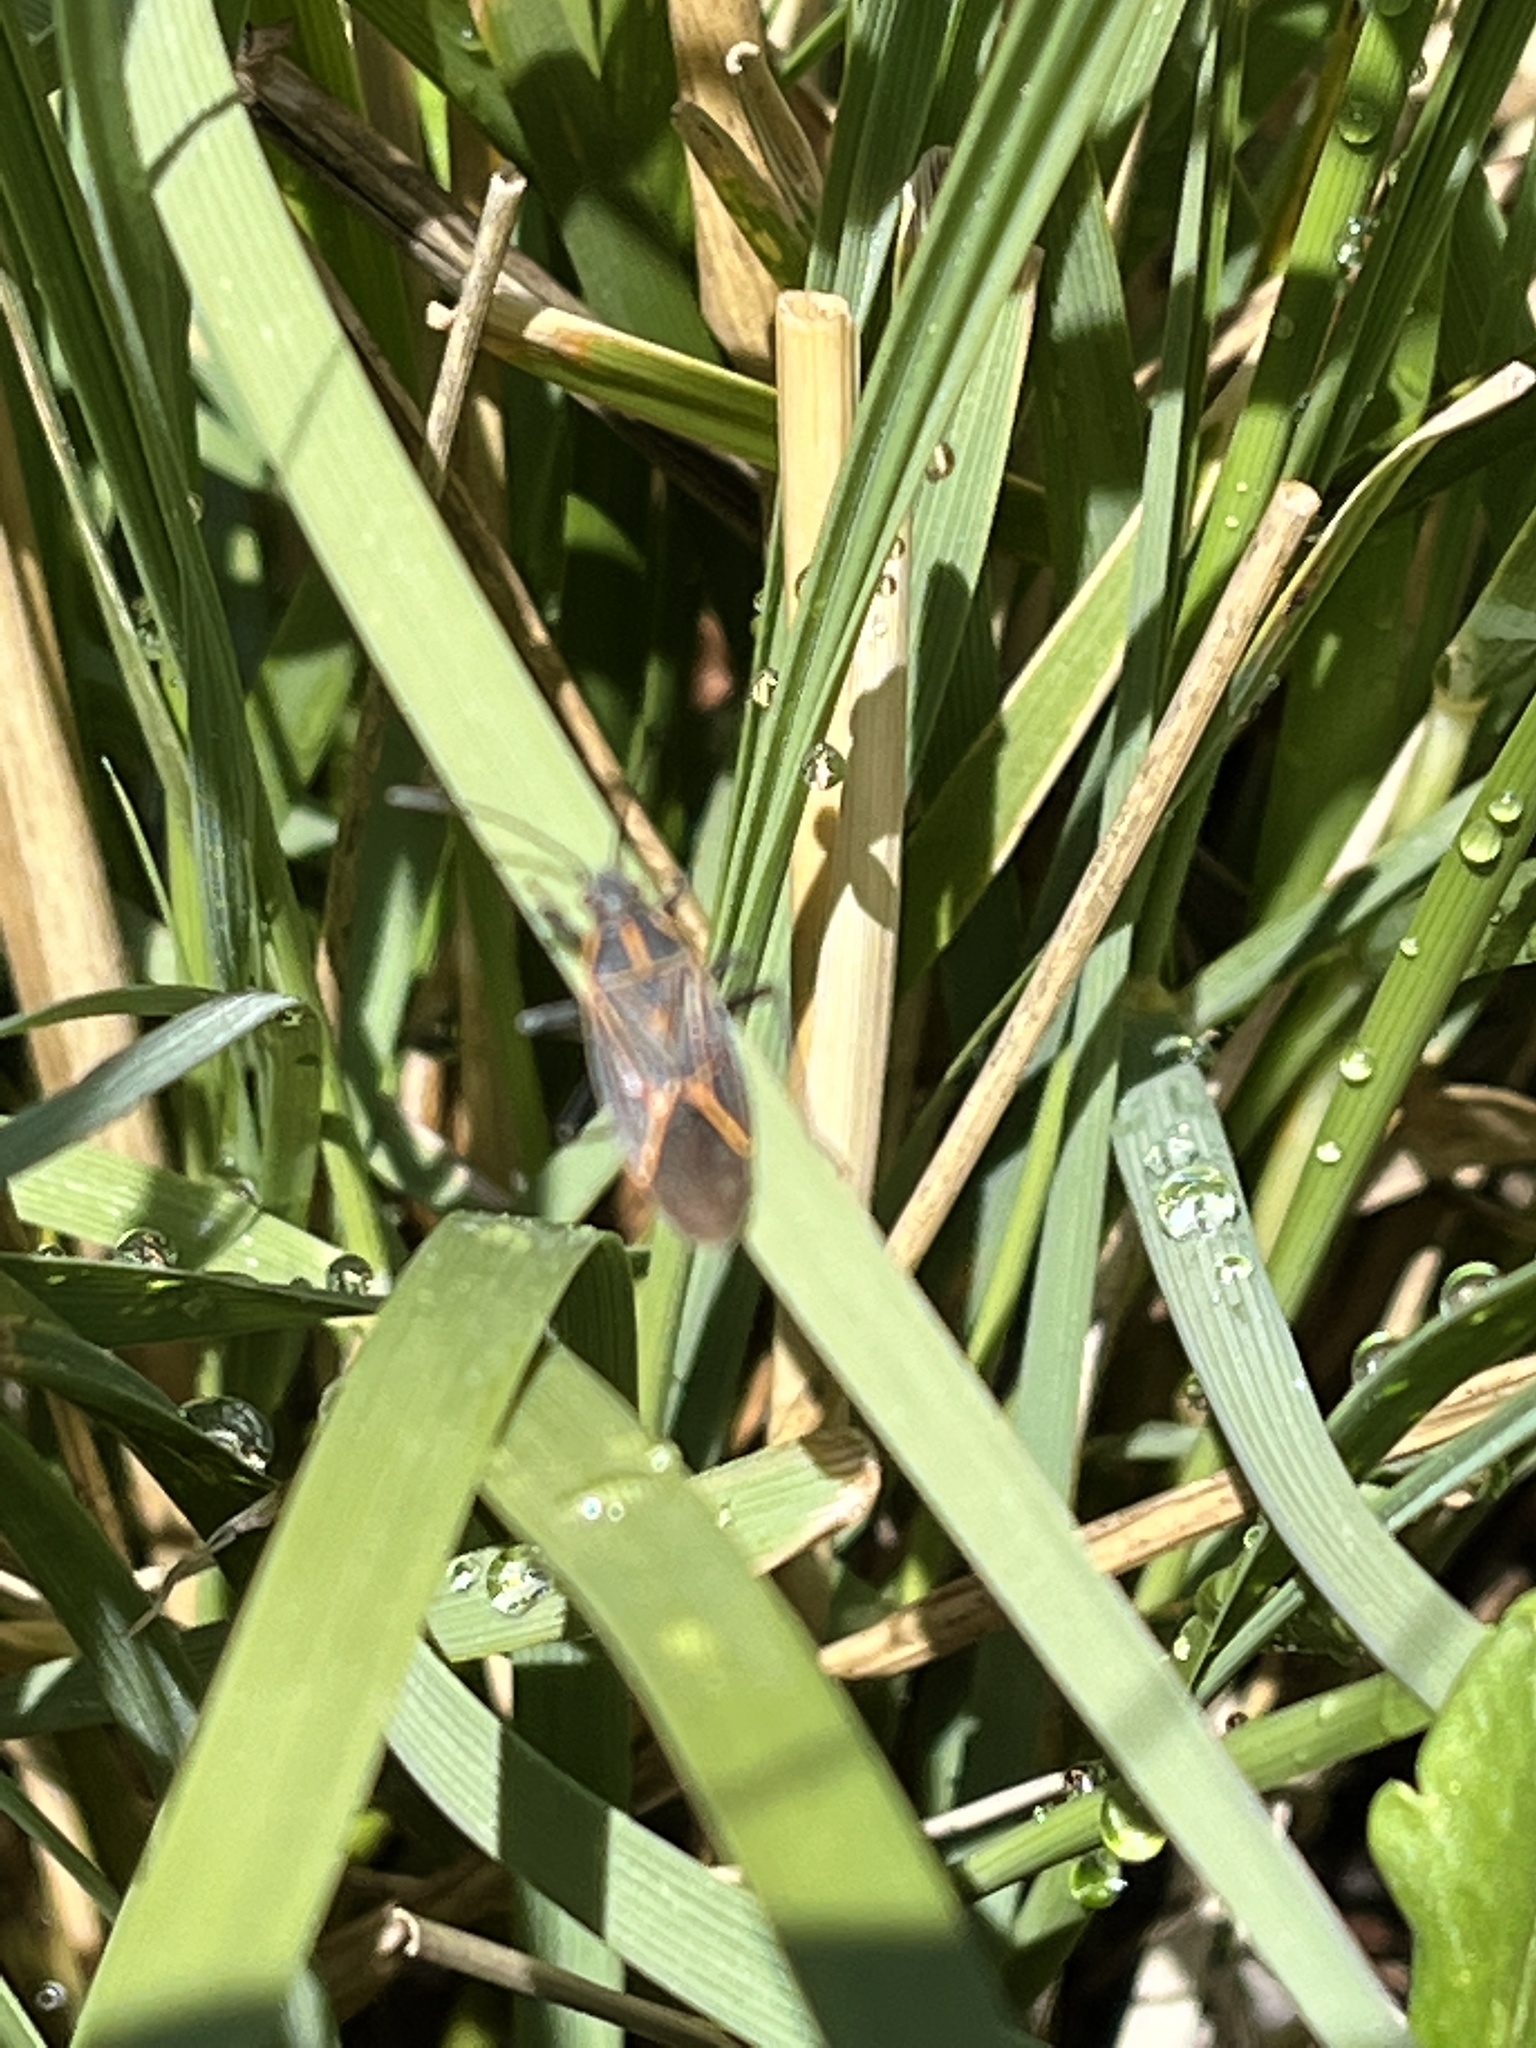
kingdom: Animalia
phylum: Arthropoda
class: Insecta
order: Hemiptera
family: Rhopalidae
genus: Boisea
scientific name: Boisea rubrolineata
